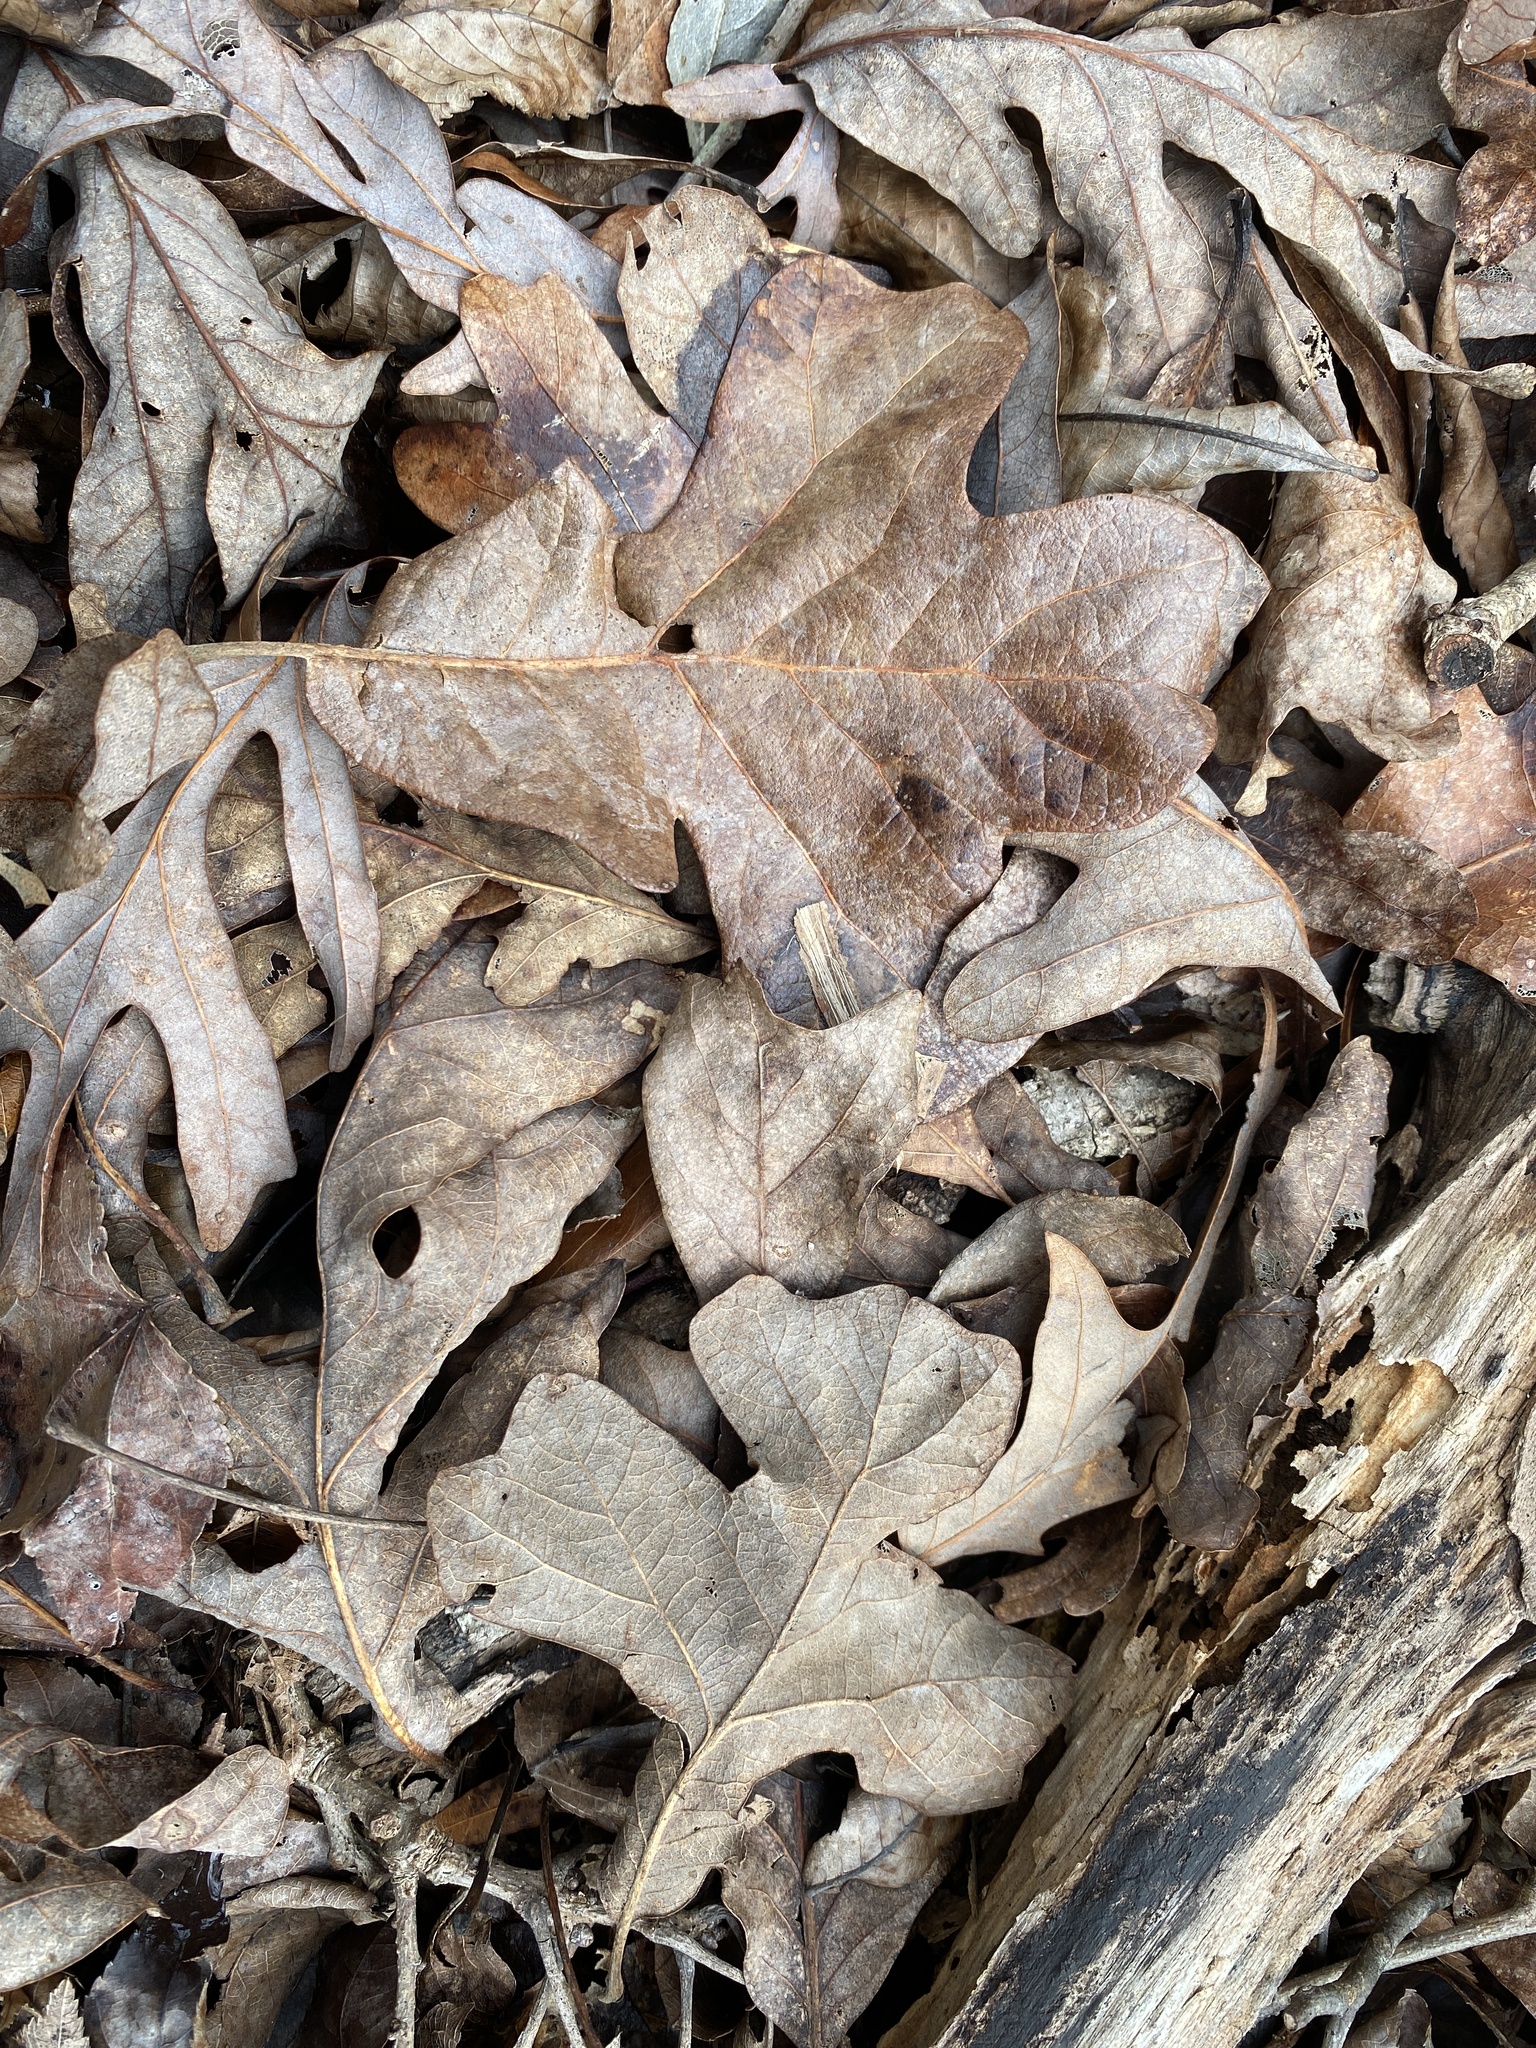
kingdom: Plantae
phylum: Tracheophyta
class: Magnoliopsida
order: Fagales
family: Fagaceae
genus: Quercus
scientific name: Quercus stellata
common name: Post oak
